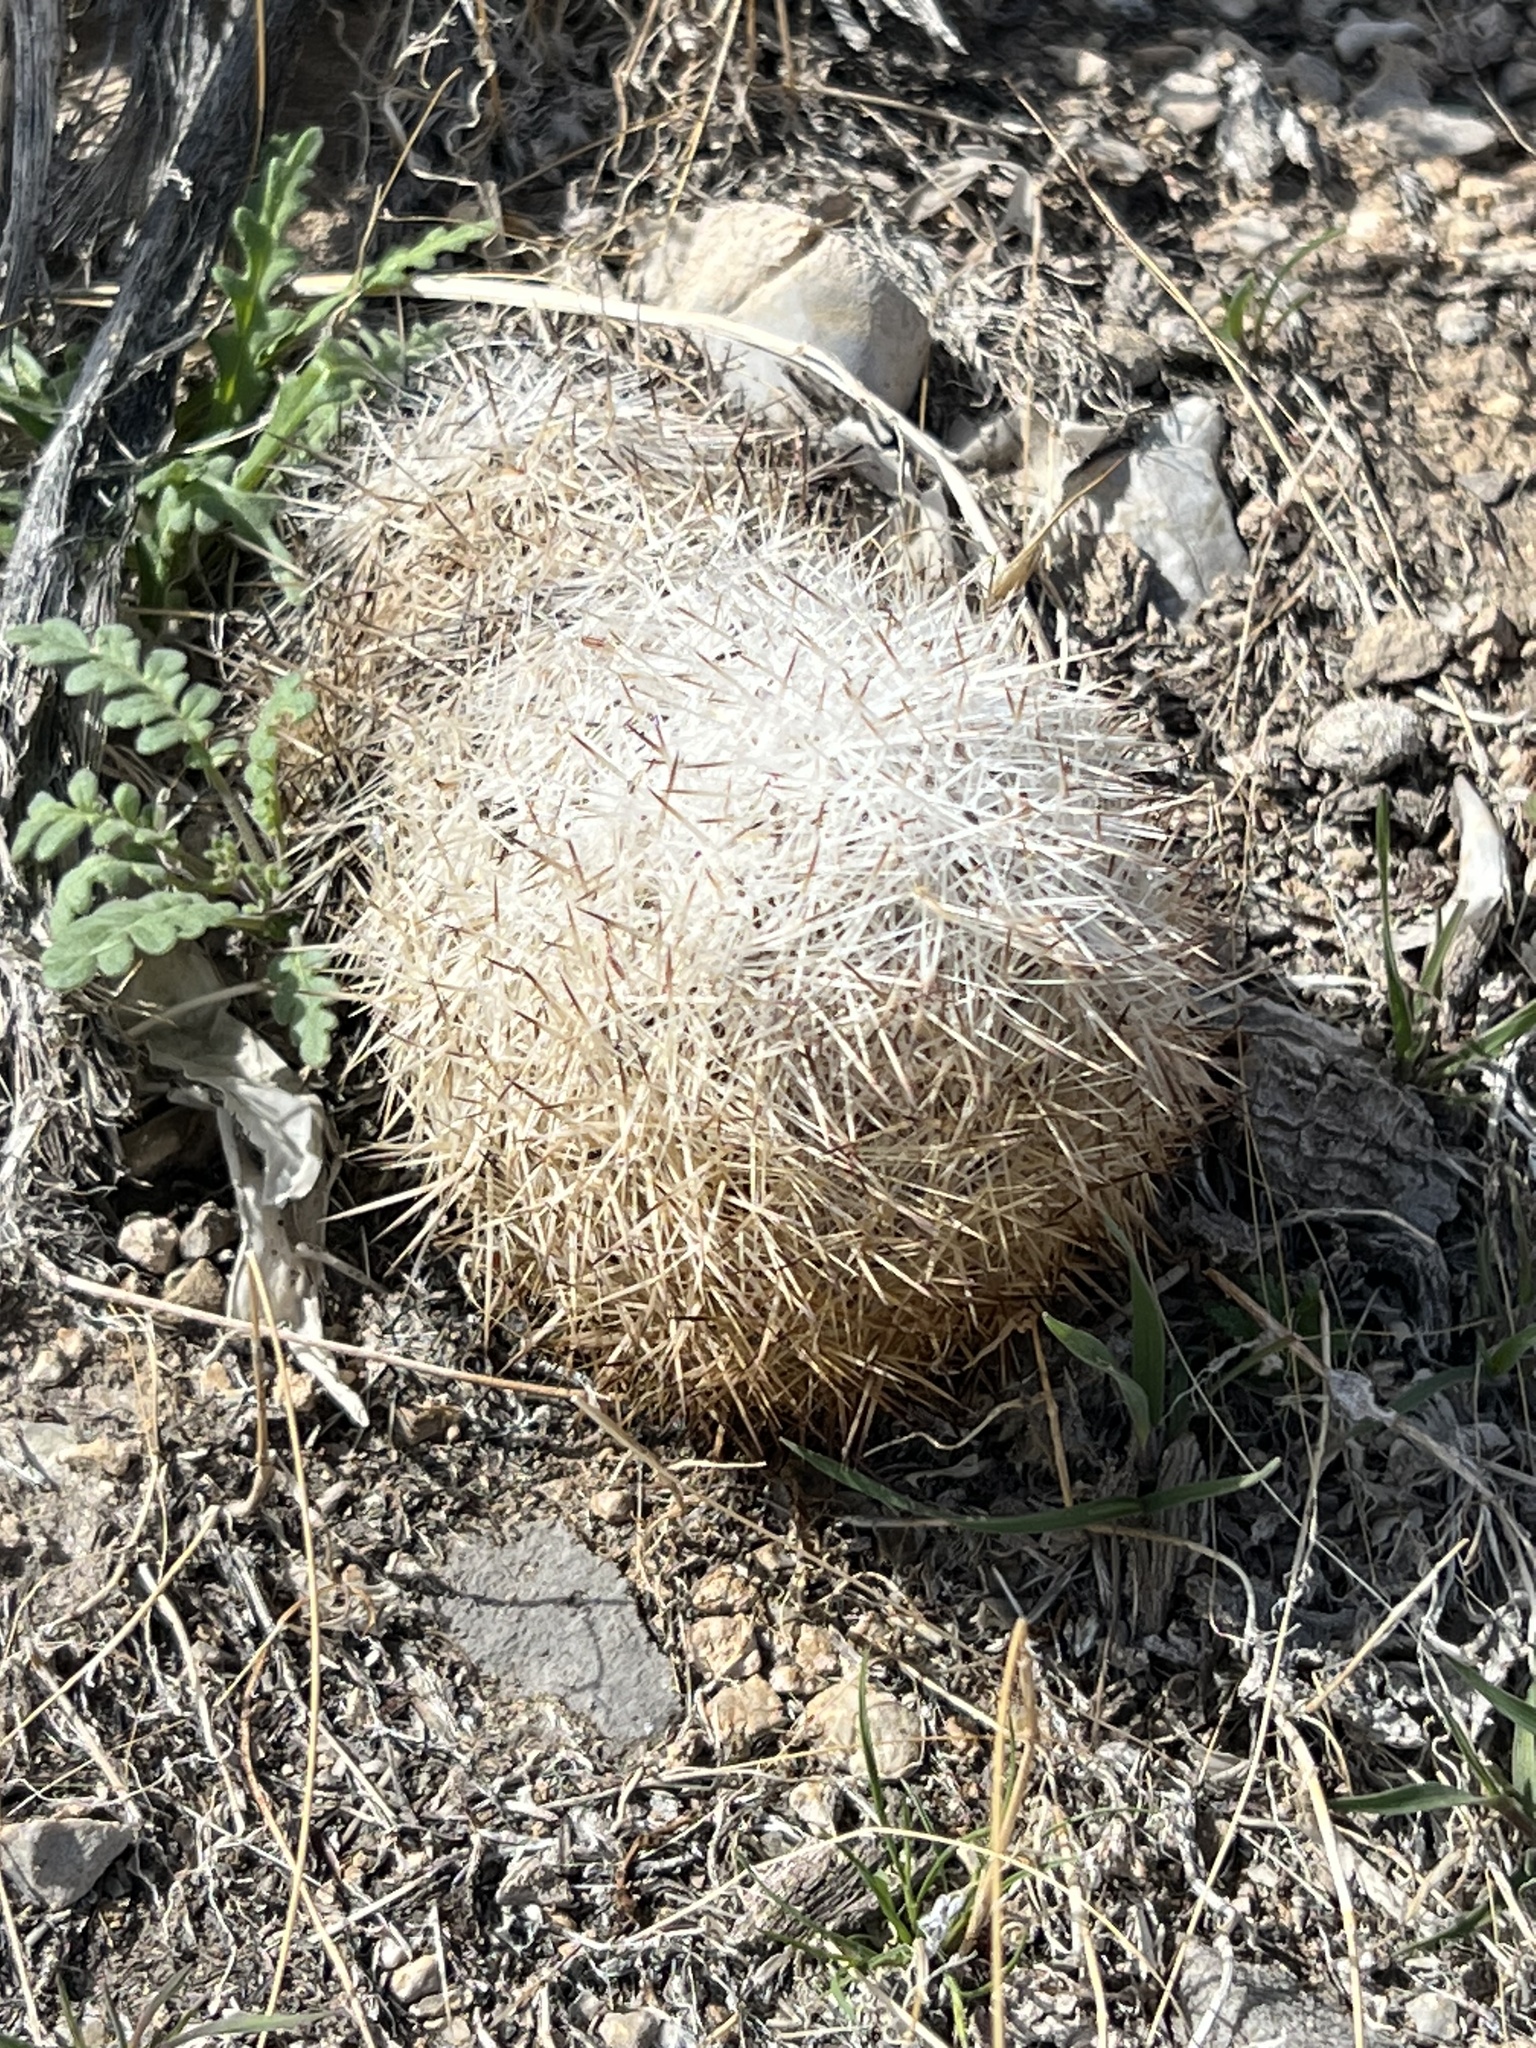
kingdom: Plantae
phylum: Tracheophyta
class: Magnoliopsida
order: Caryophyllales
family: Cactaceae
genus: Pelecyphora
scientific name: Pelecyphora dasyacantha
